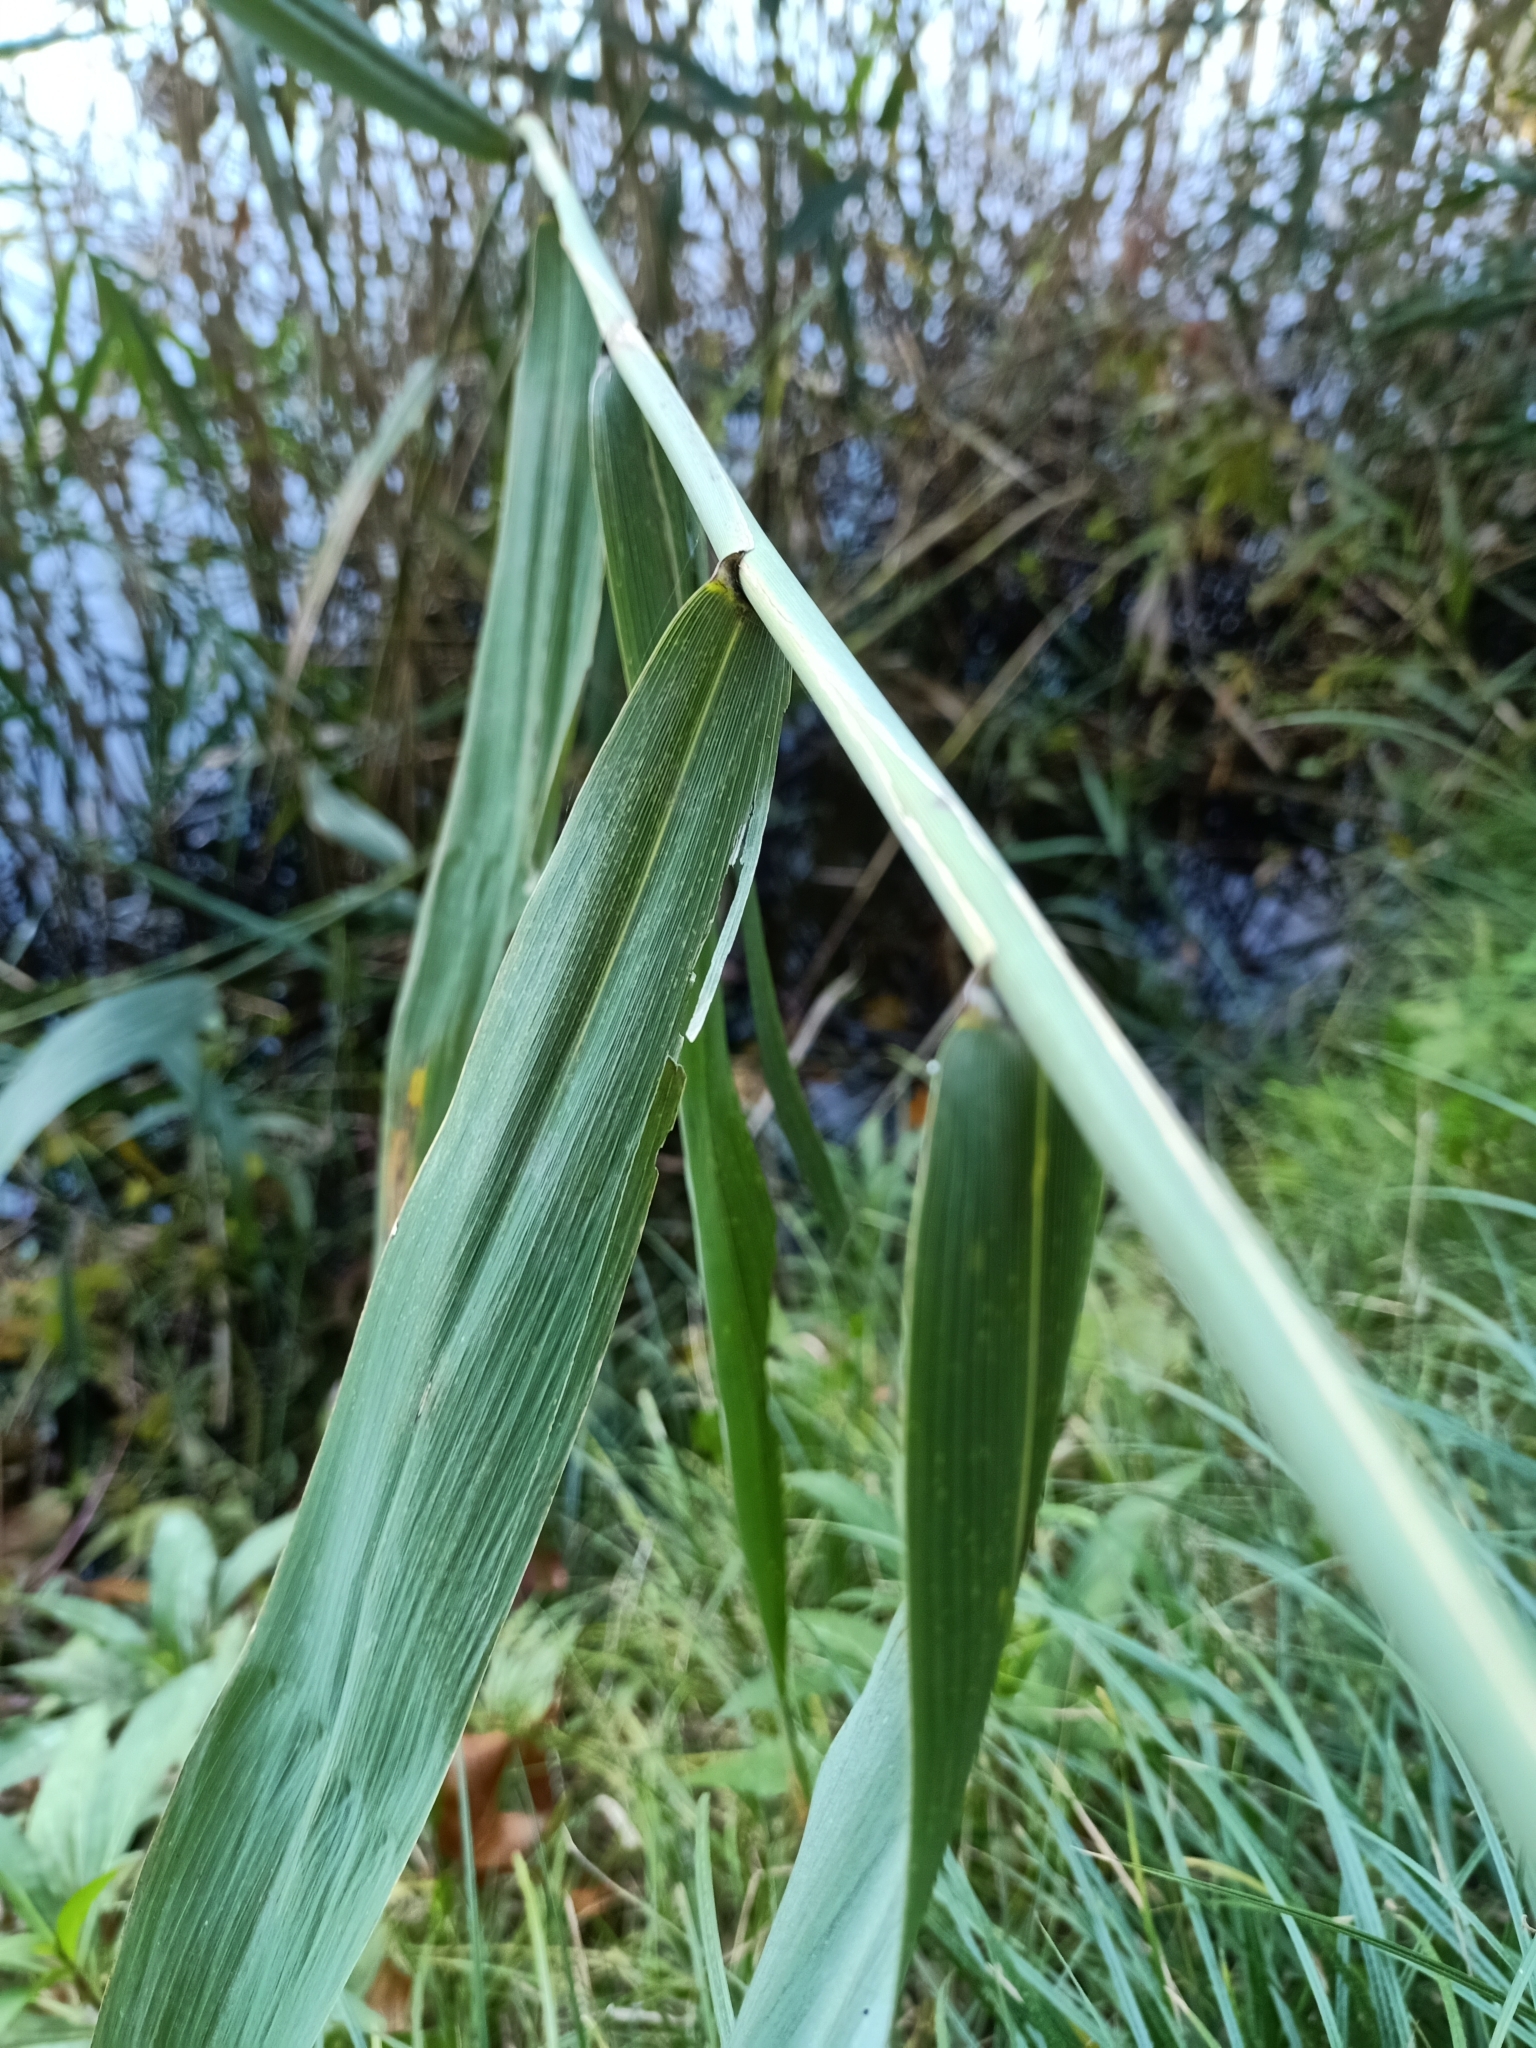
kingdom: Plantae
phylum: Tracheophyta
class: Liliopsida
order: Poales
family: Poaceae
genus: Phragmites
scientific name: Phragmites australis
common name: Common reed
